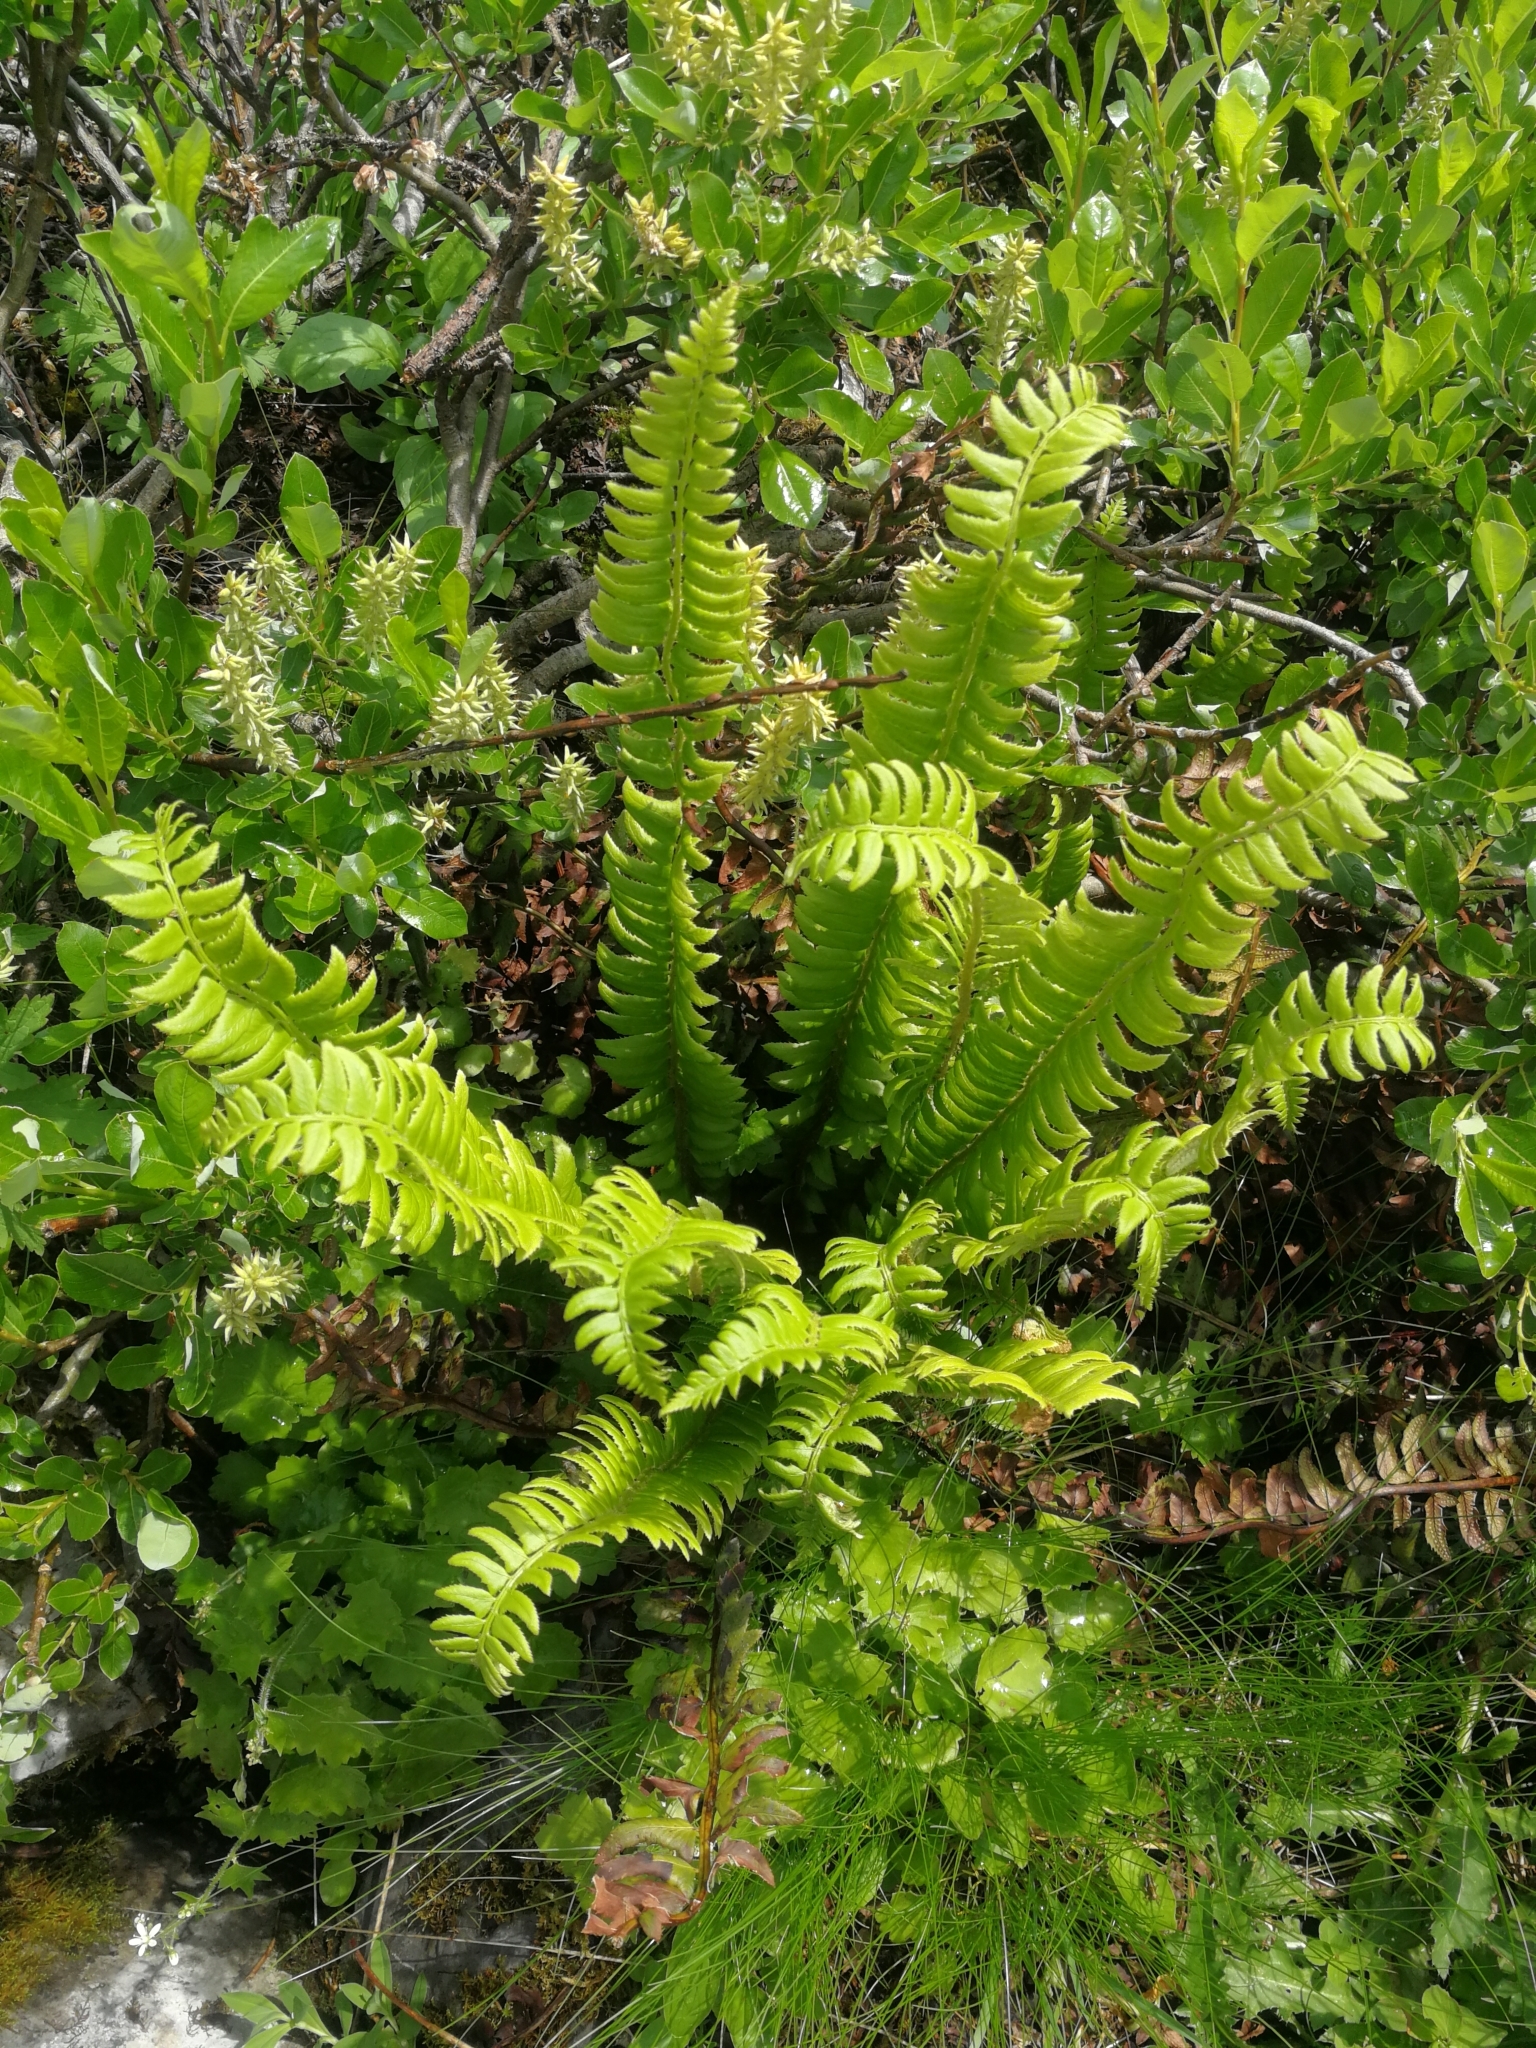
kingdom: Plantae
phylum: Tracheophyta
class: Polypodiopsida
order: Polypodiales
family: Dryopteridaceae
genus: Polystichum
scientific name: Polystichum lonchitis
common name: Holly fern
